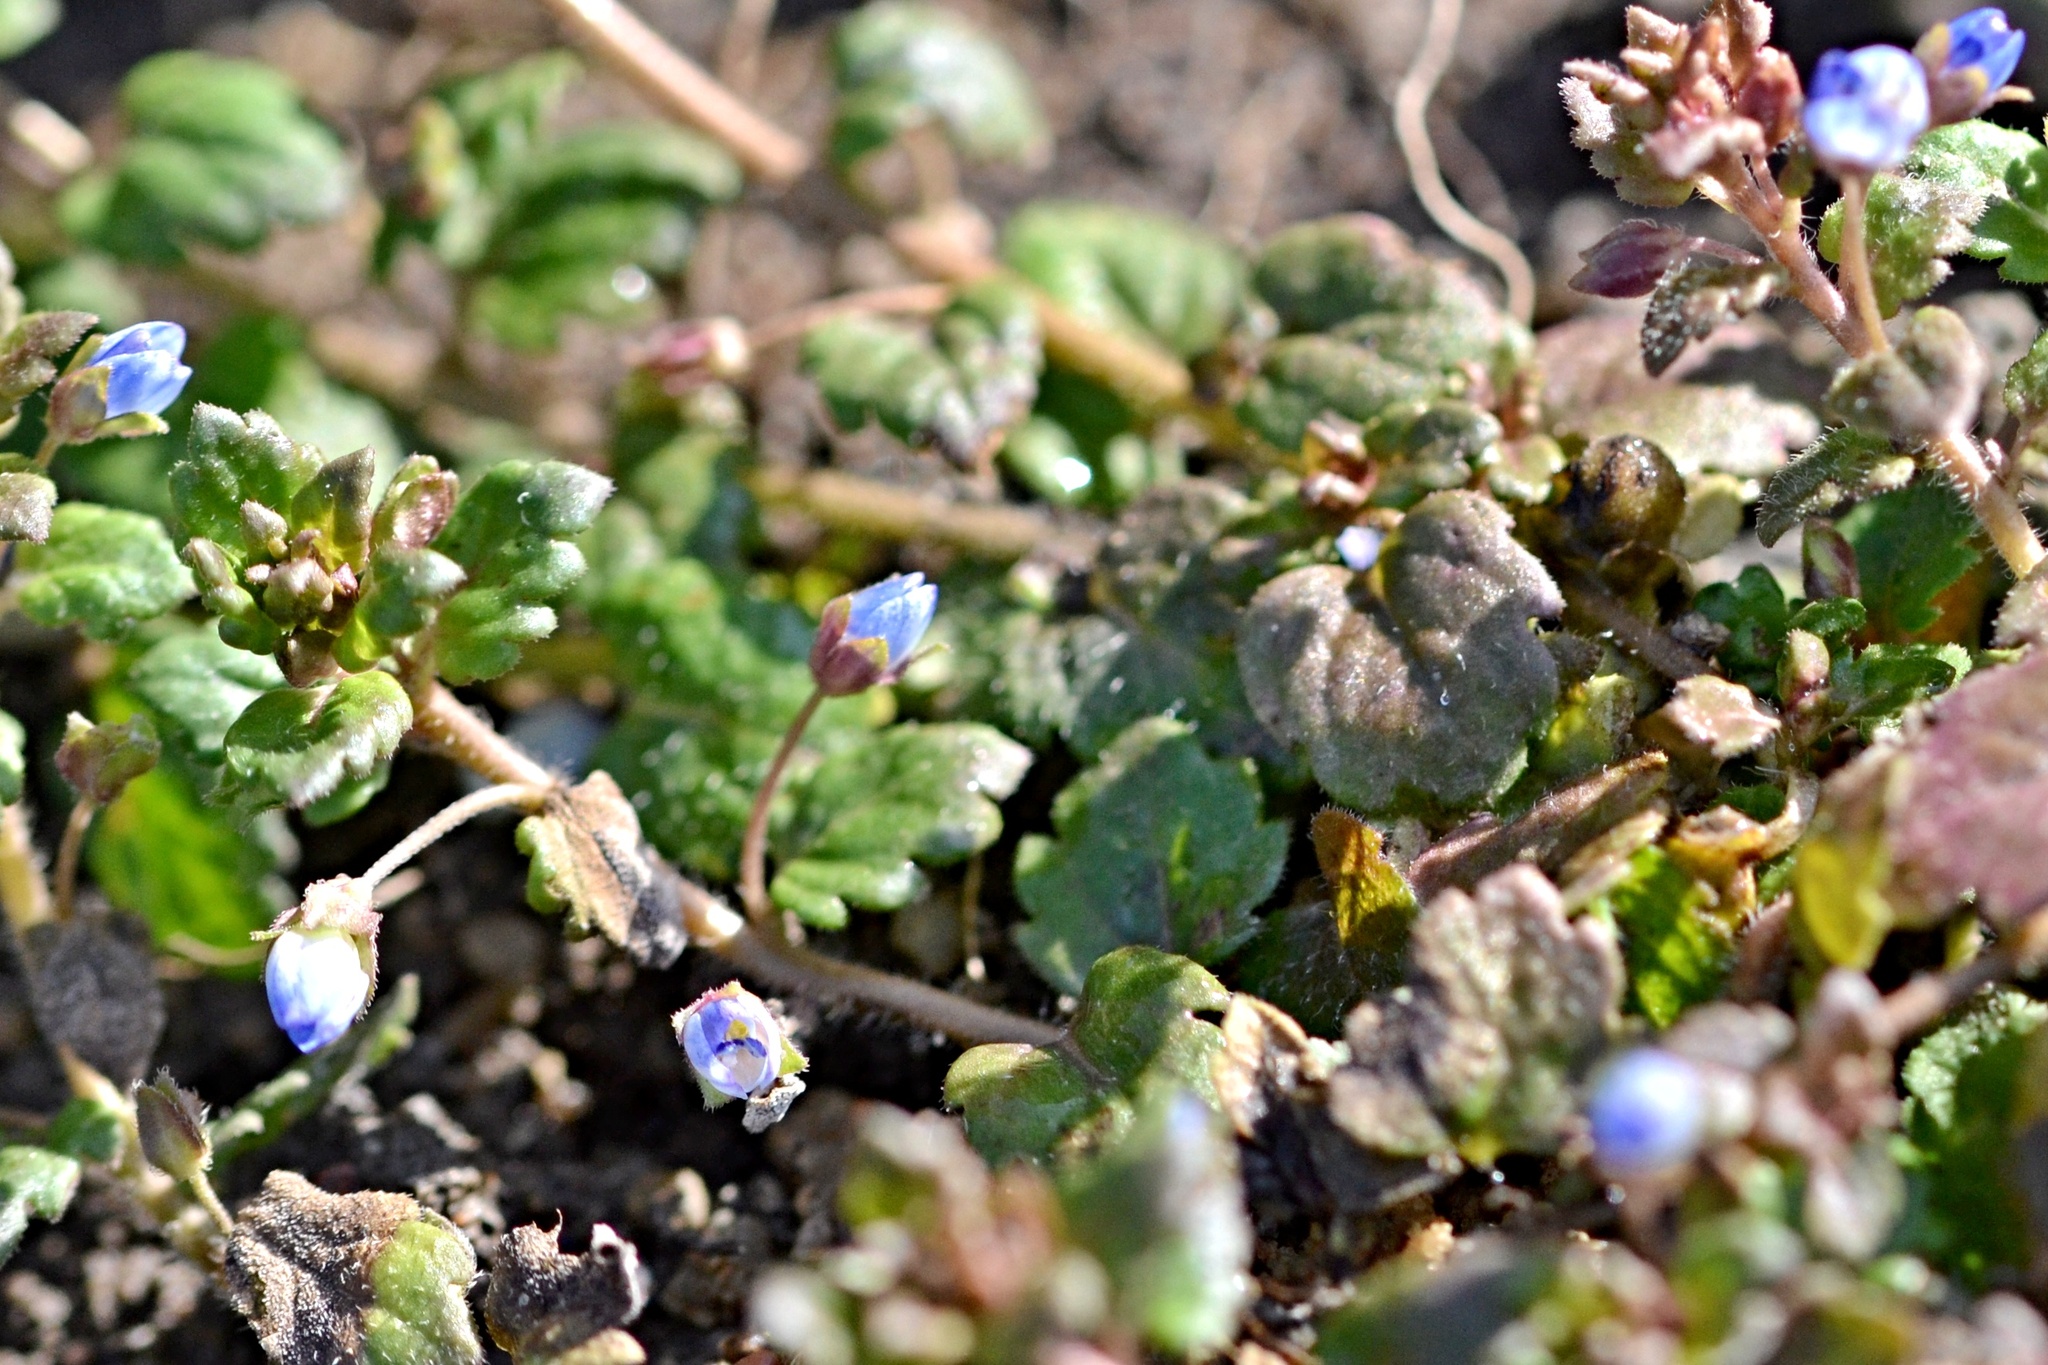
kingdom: Plantae
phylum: Tracheophyta
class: Magnoliopsida
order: Lamiales
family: Plantaginaceae
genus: Veronica
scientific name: Veronica polita
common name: Grey field-speedwell
